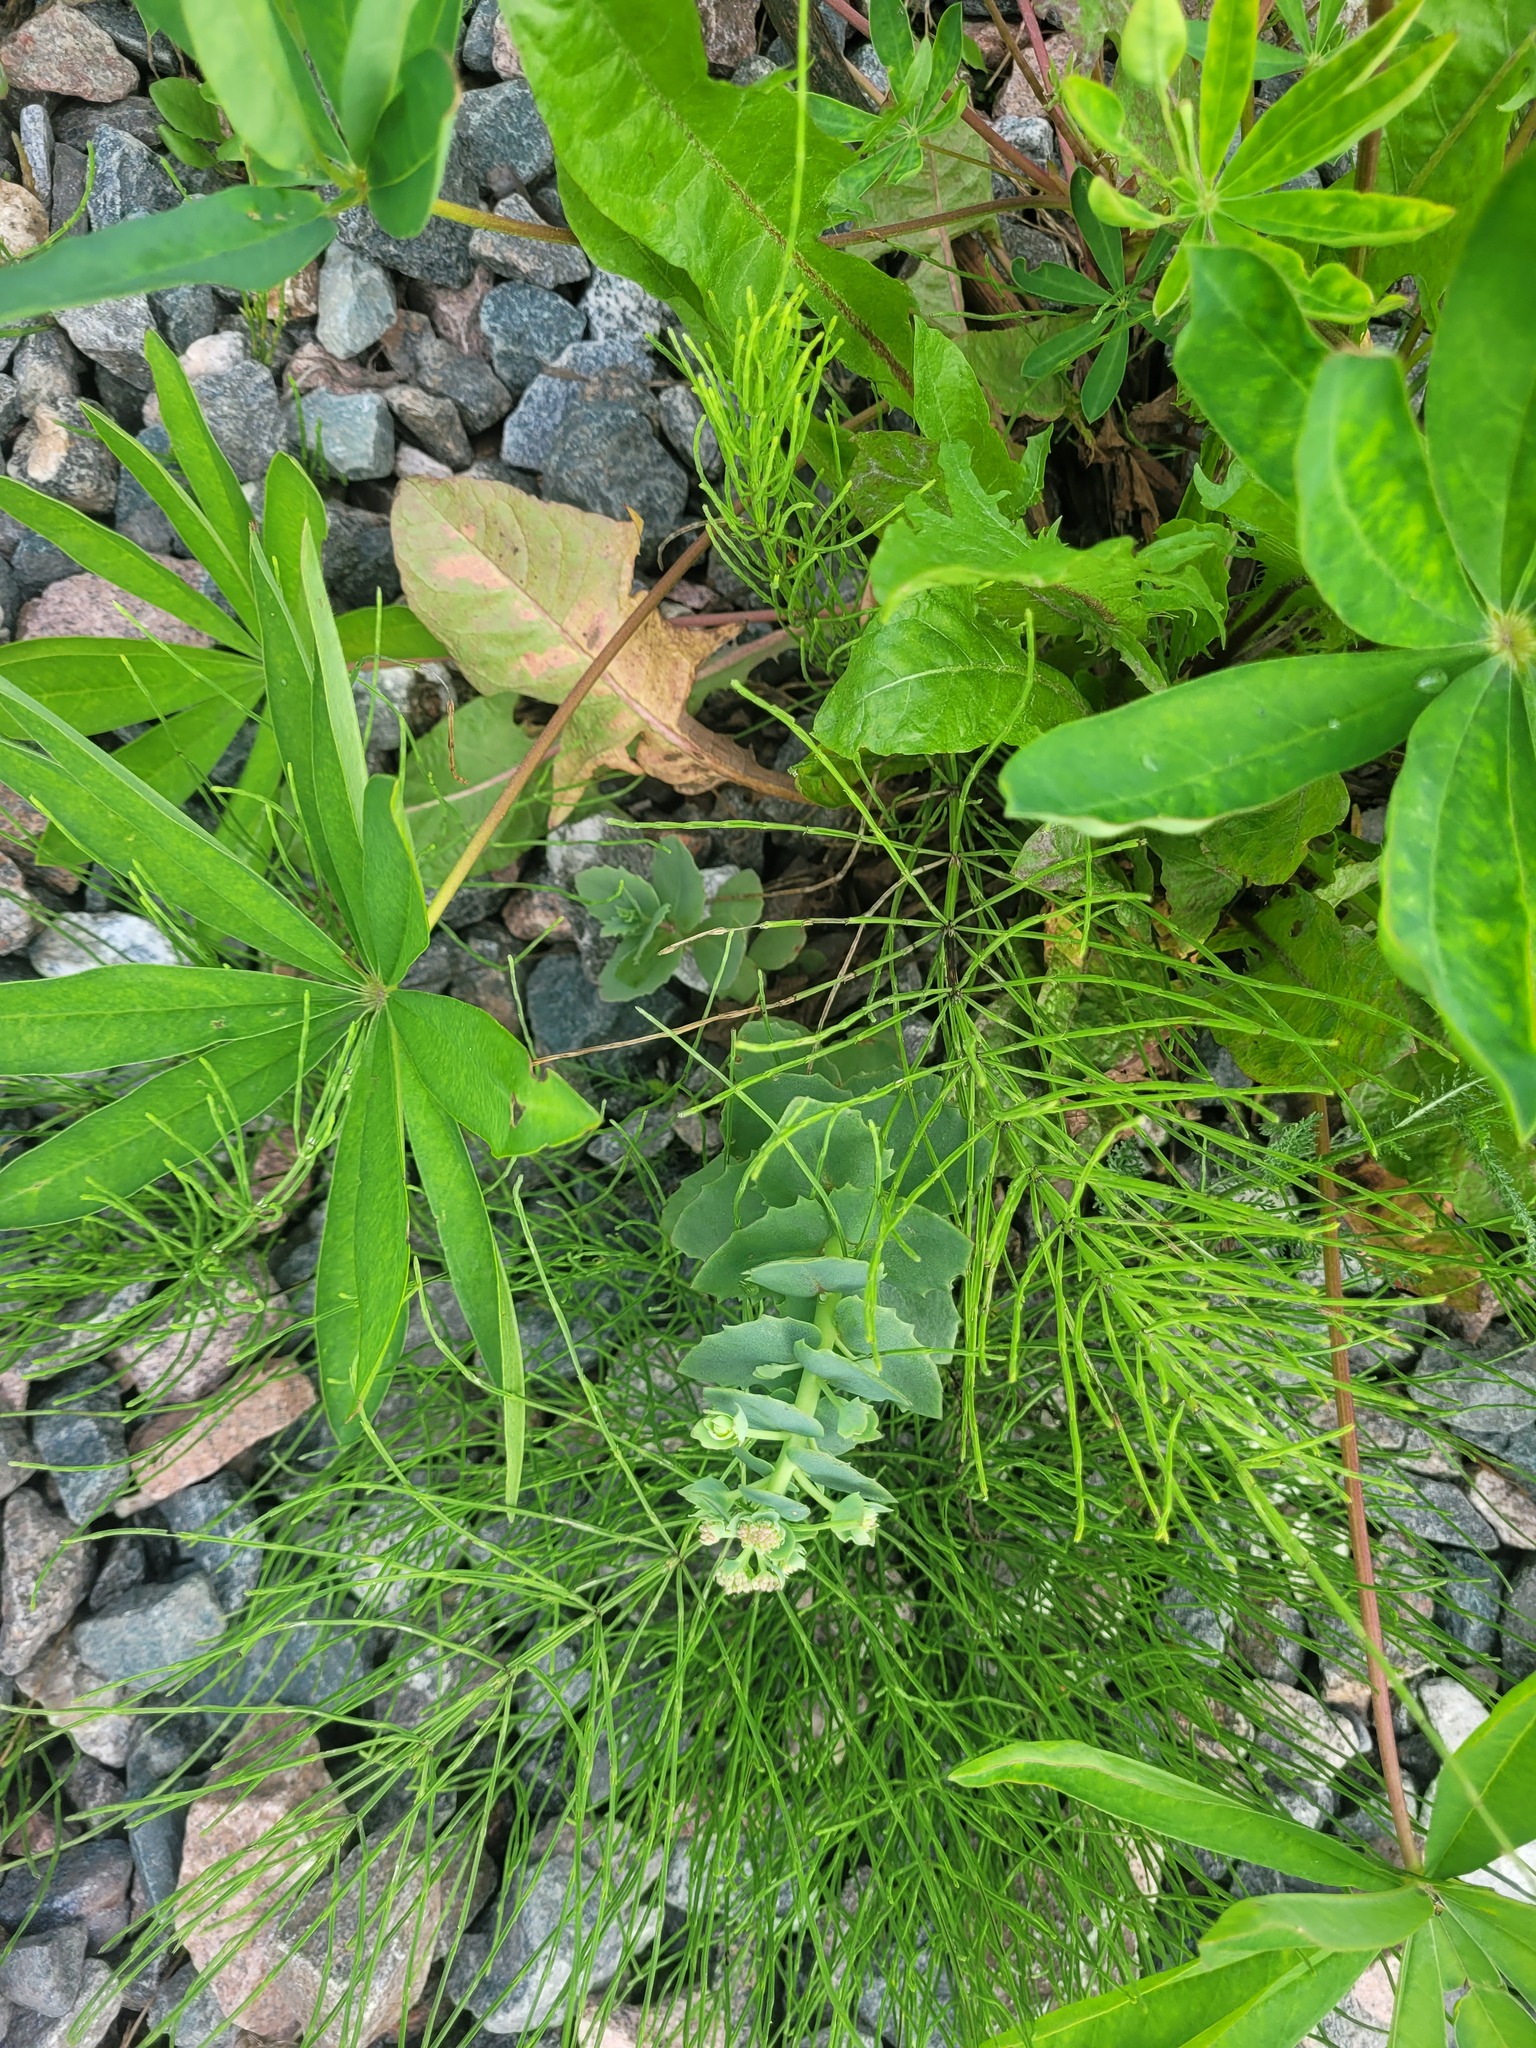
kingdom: Plantae
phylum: Tracheophyta
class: Magnoliopsida
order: Saxifragales
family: Crassulaceae
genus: Hylotelephium
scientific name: Hylotelephium maximum
